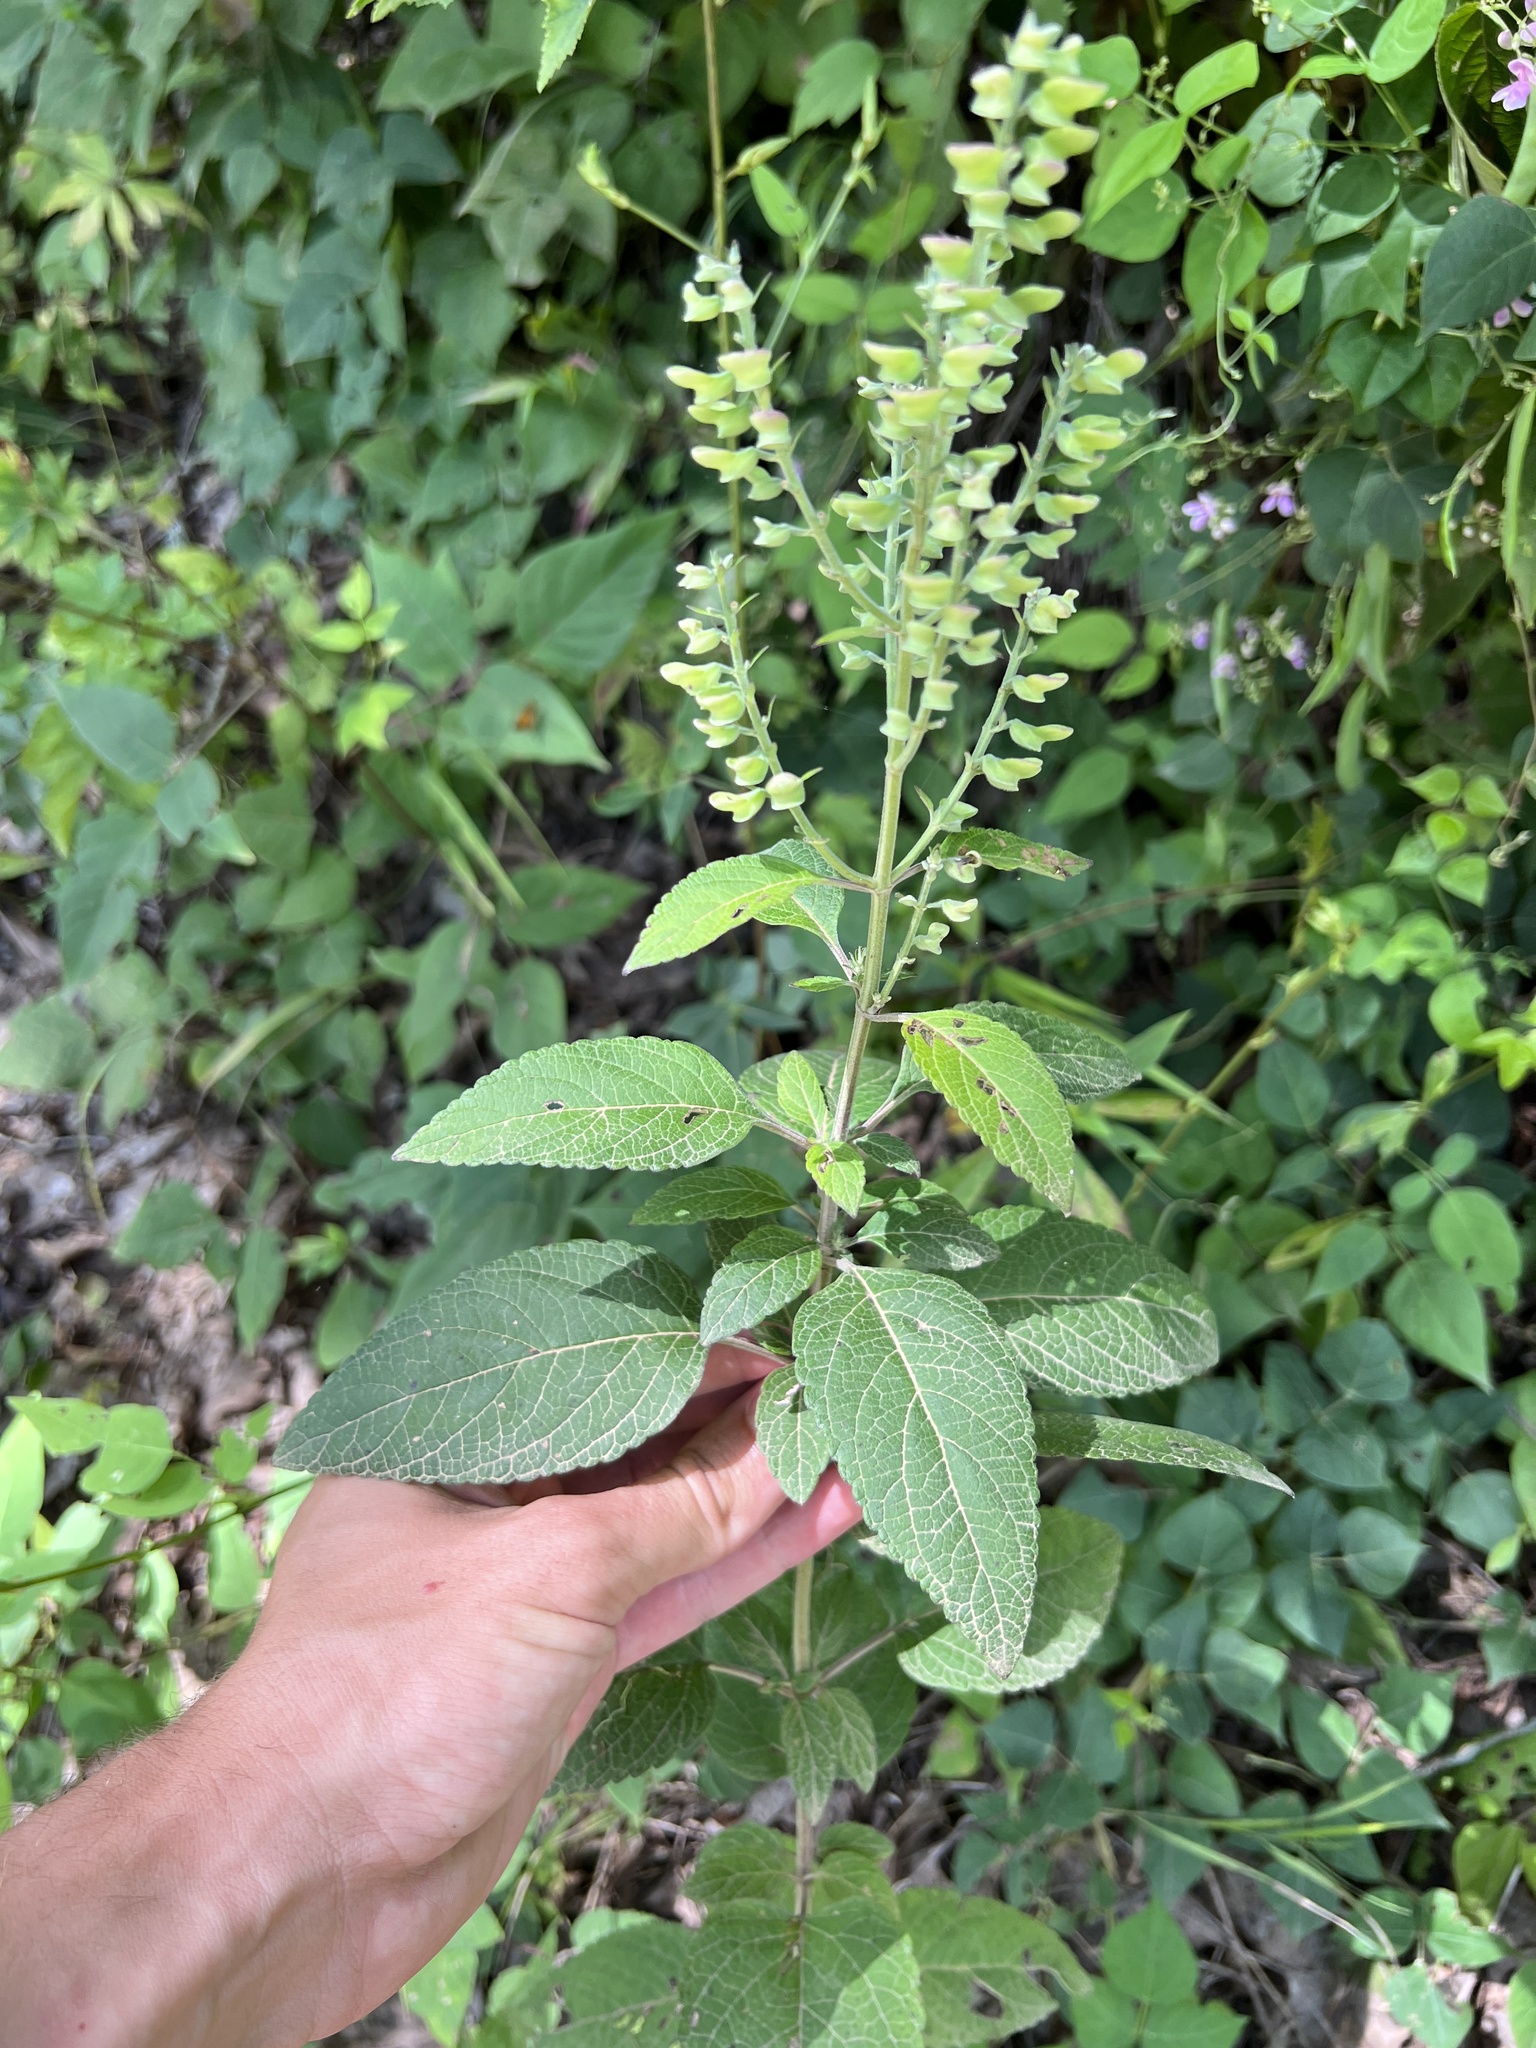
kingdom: Plantae
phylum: Tracheophyta
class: Magnoliopsida
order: Lamiales
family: Lamiaceae
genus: Scutellaria
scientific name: Scutellaria incana
